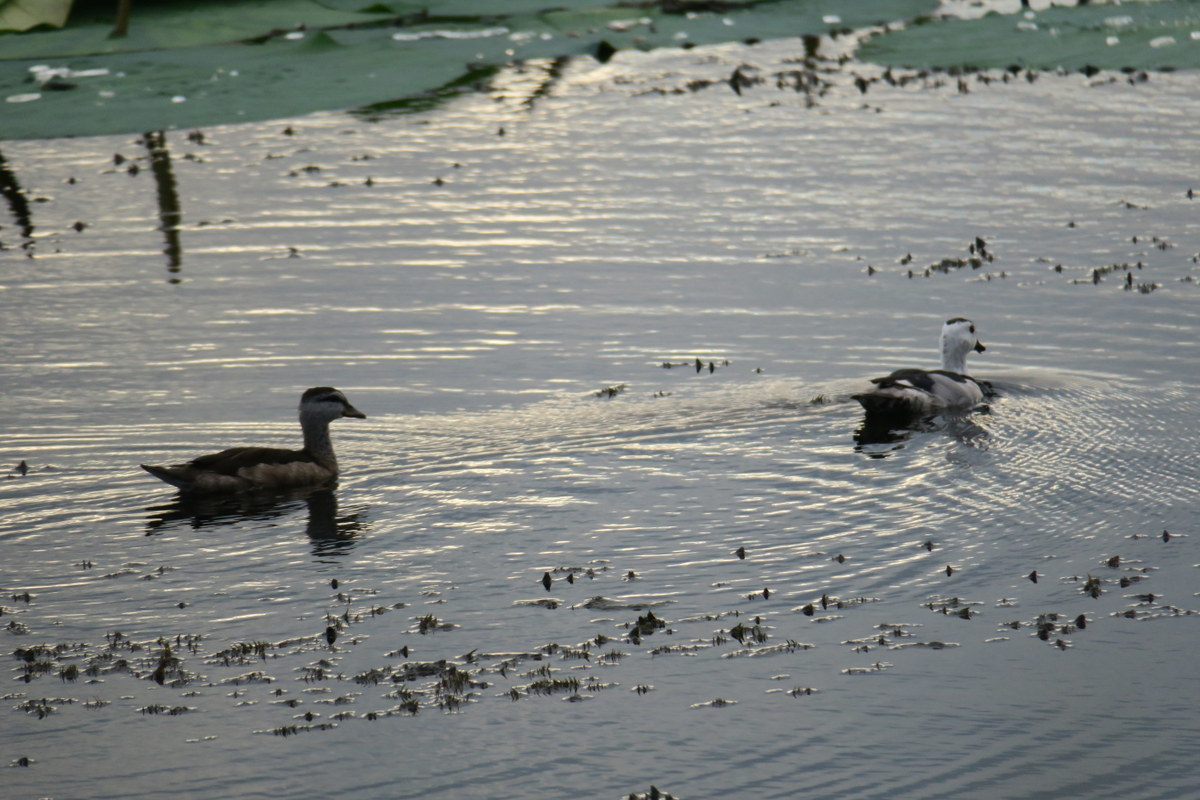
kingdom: Animalia
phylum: Chordata
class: Aves
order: Anseriformes
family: Anatidae
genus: Nettapus
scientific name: Nettapus coromandelianus
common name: Cotton pygmy-goose
